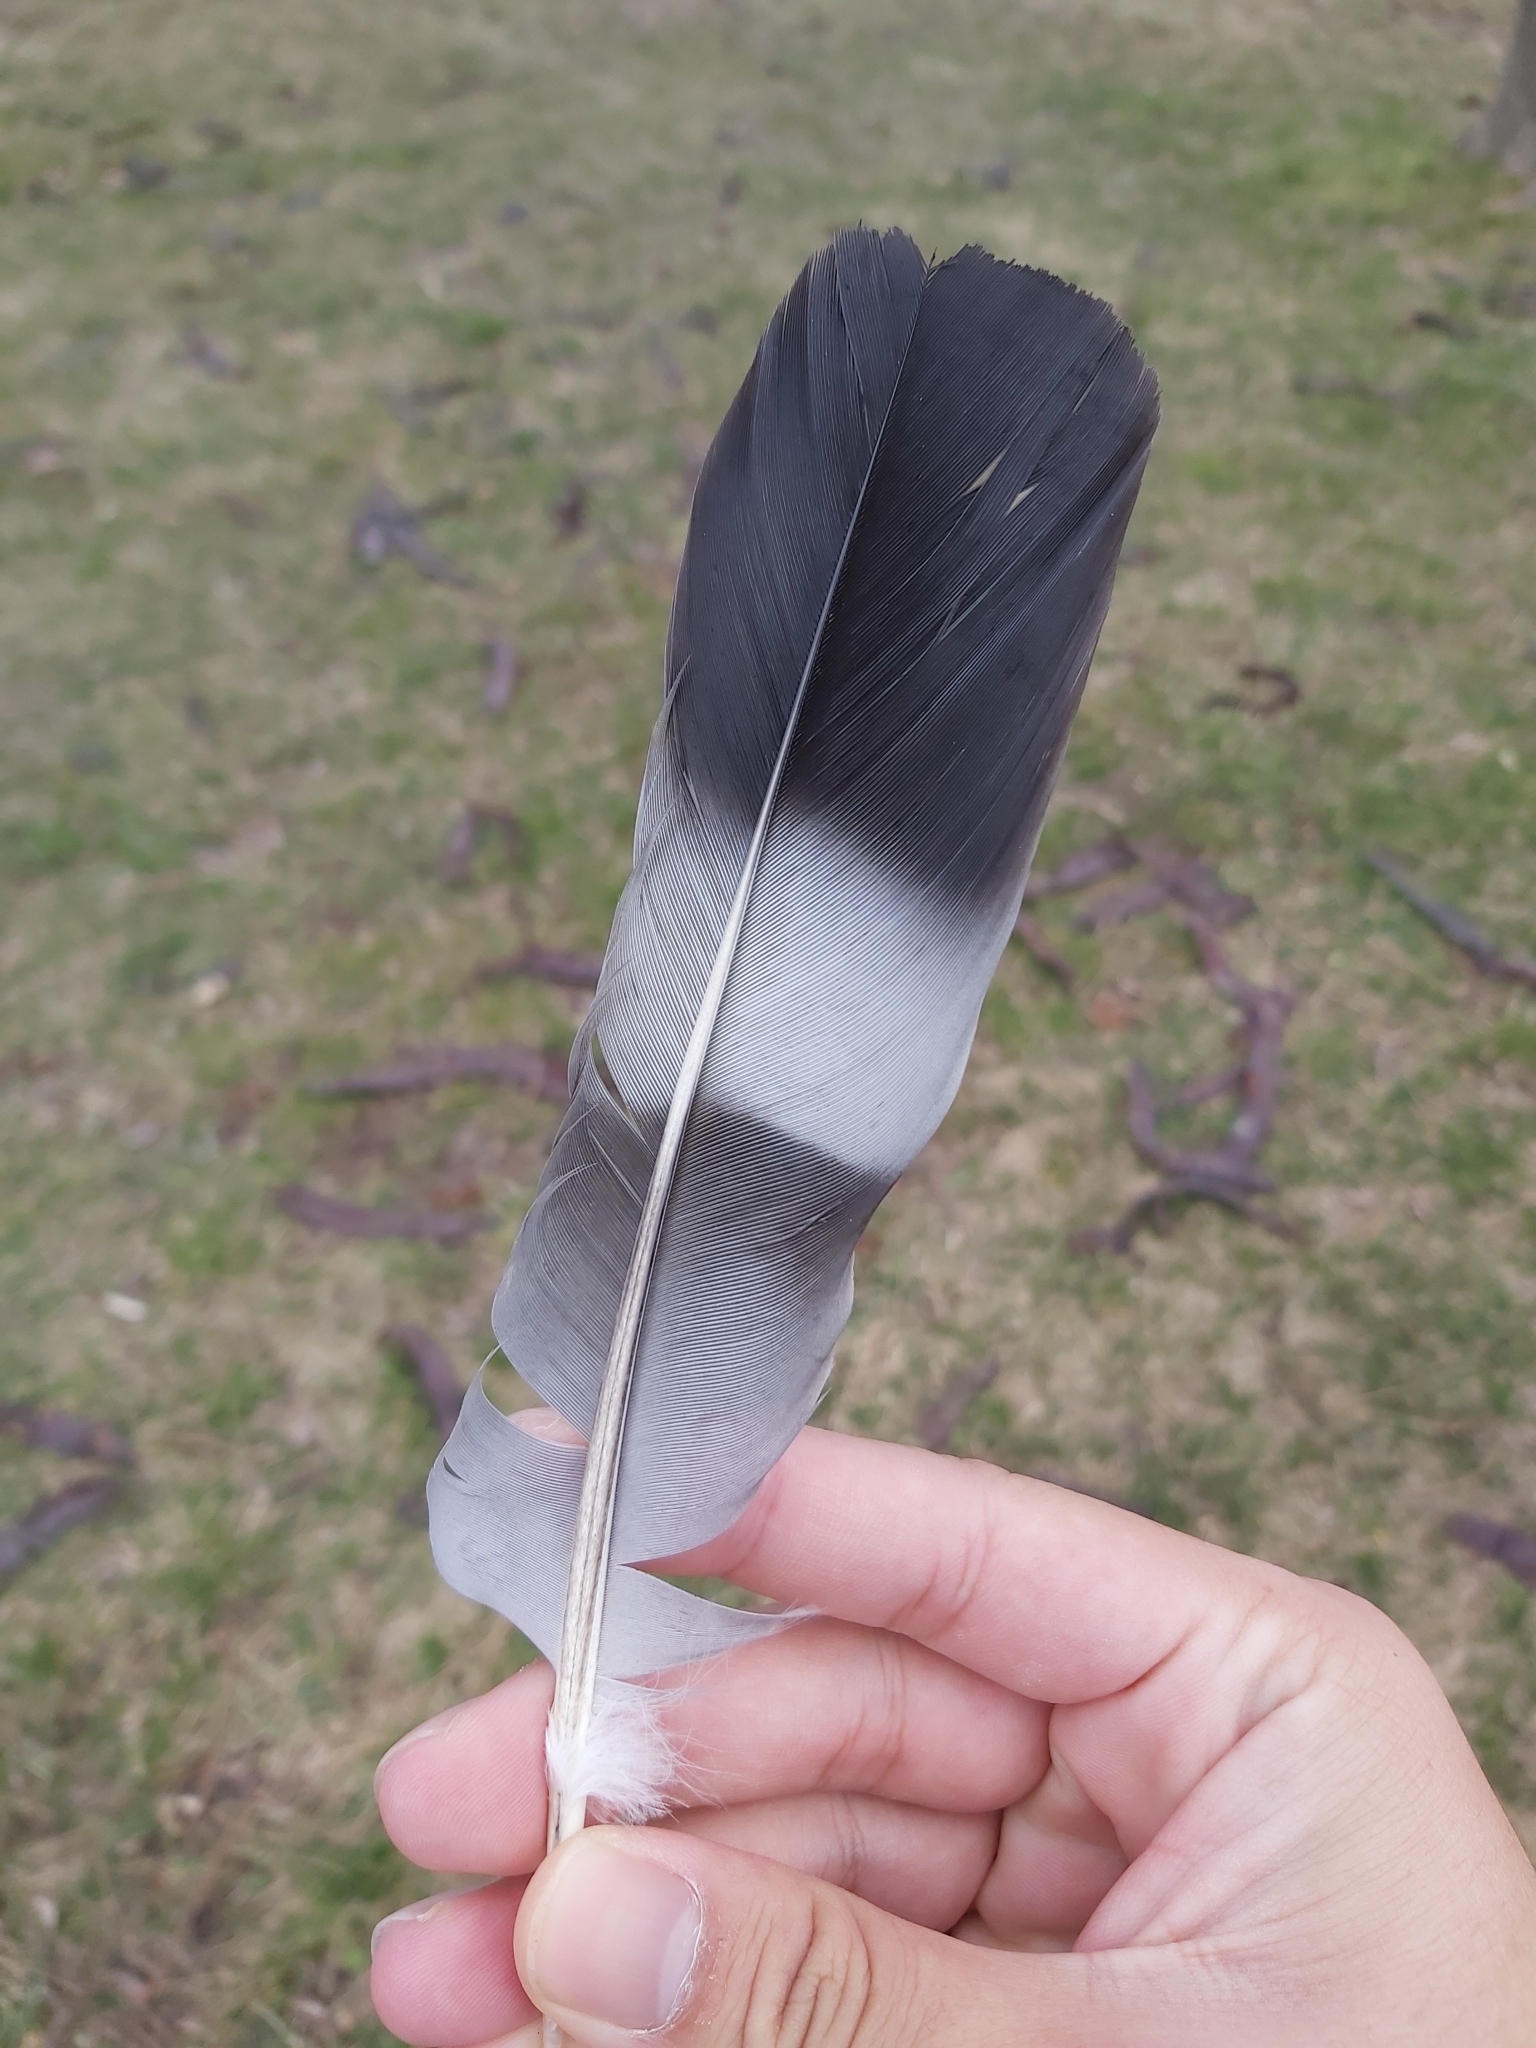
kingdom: Animalia
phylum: Chordata
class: Aves
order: Columbiformes
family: Columbidae
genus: Columba
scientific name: Columba palumbus
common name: Common wood pigeon
